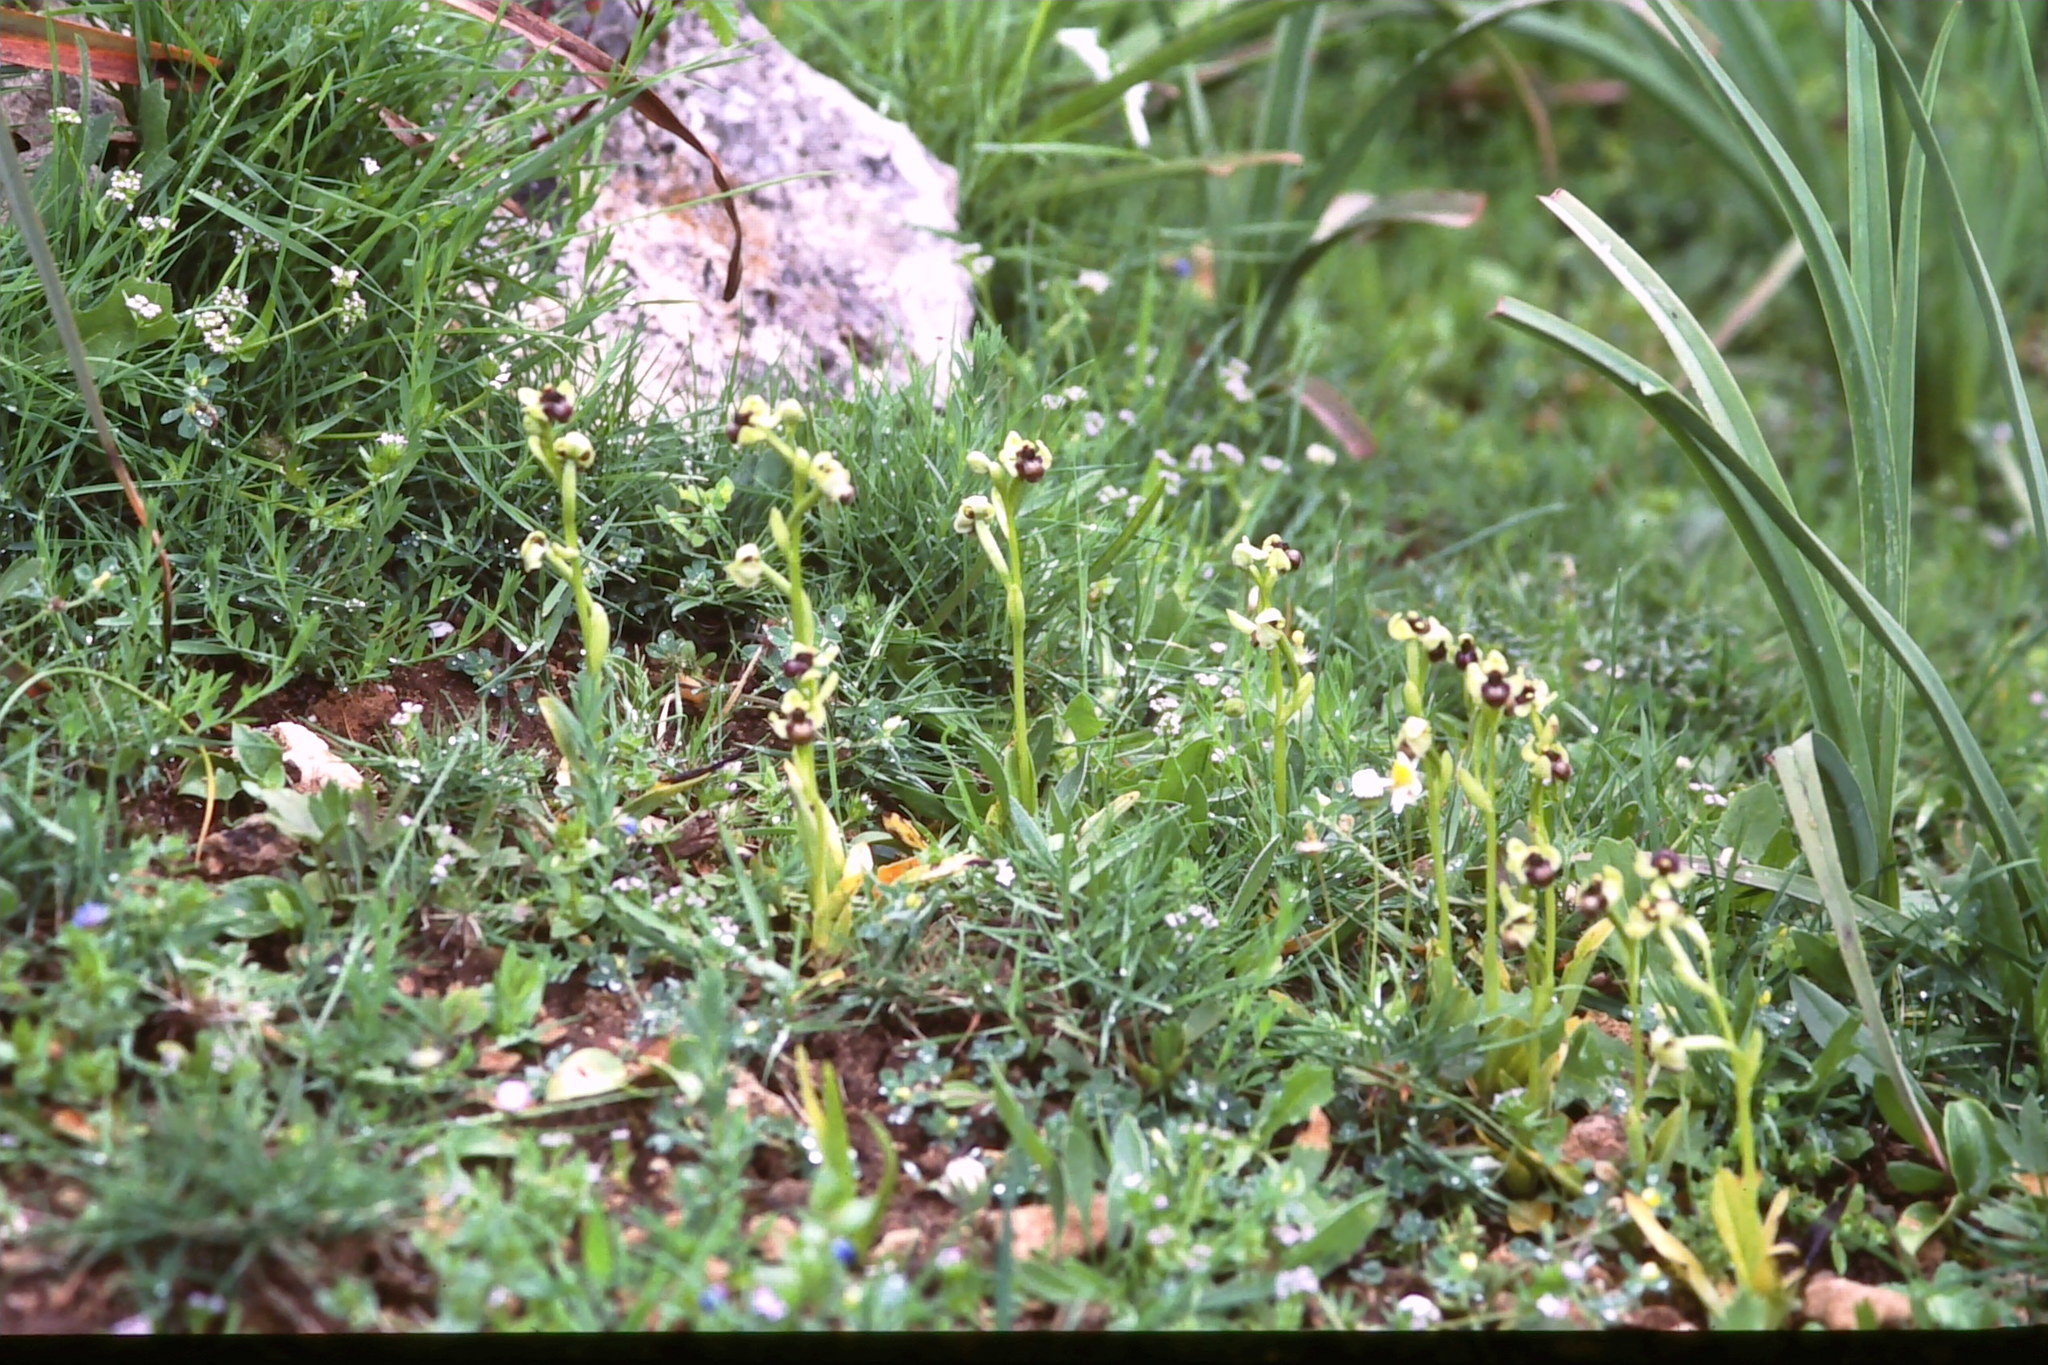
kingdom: Plantae
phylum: Tracheophyta
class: Liliopsida
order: Asparagales
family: Orchidaceae
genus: Ophrys
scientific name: Ophrys bombyliflora
